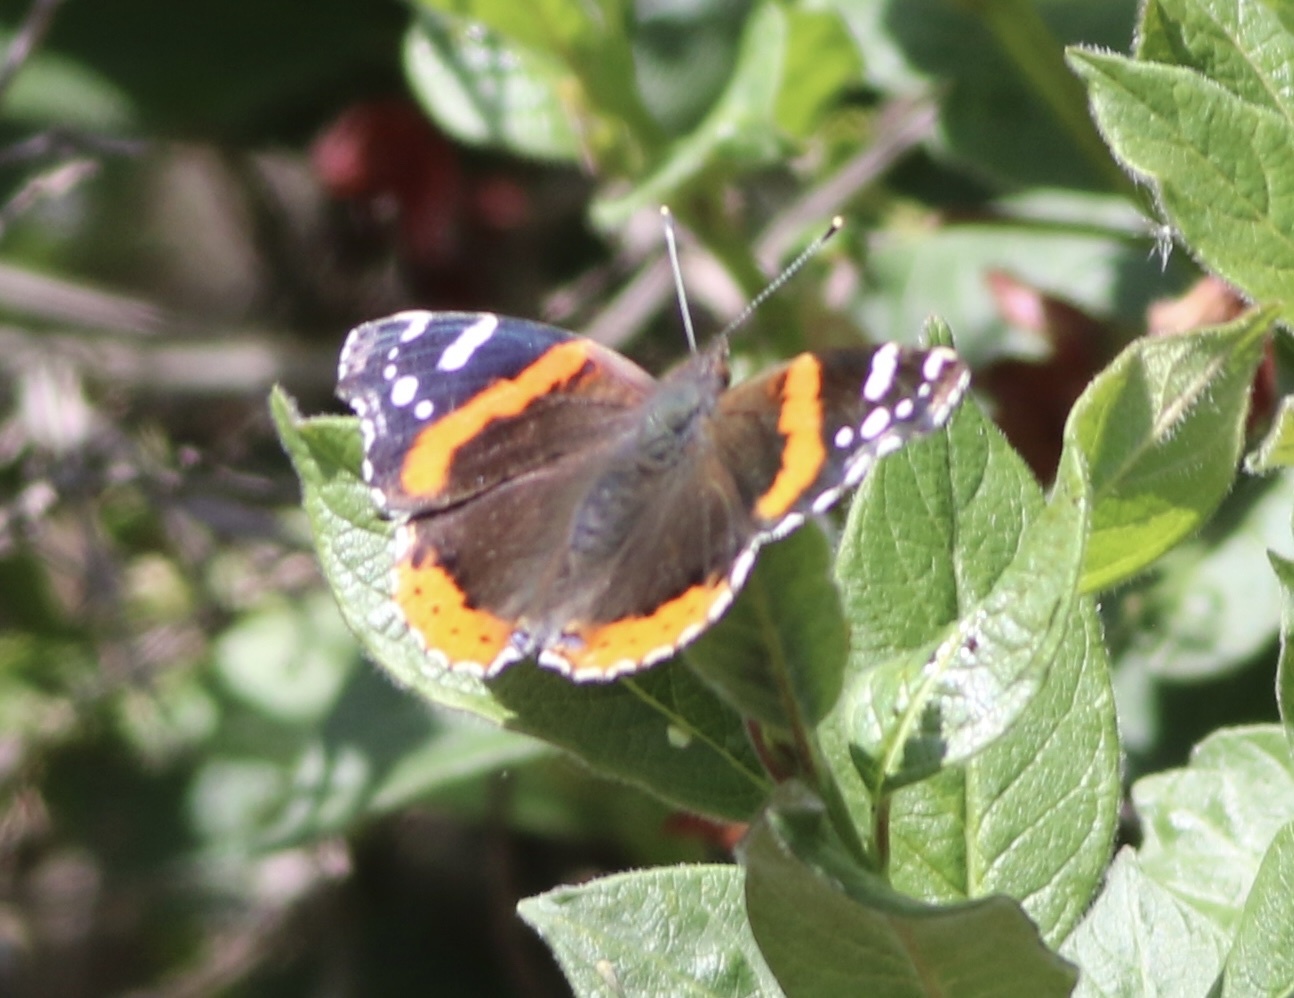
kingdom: Animalia
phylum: Arthropoda
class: Insecta
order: Lepidoptera
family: Nymphalidae
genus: Vanessa
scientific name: Vanessa atalanta
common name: Red admiral
